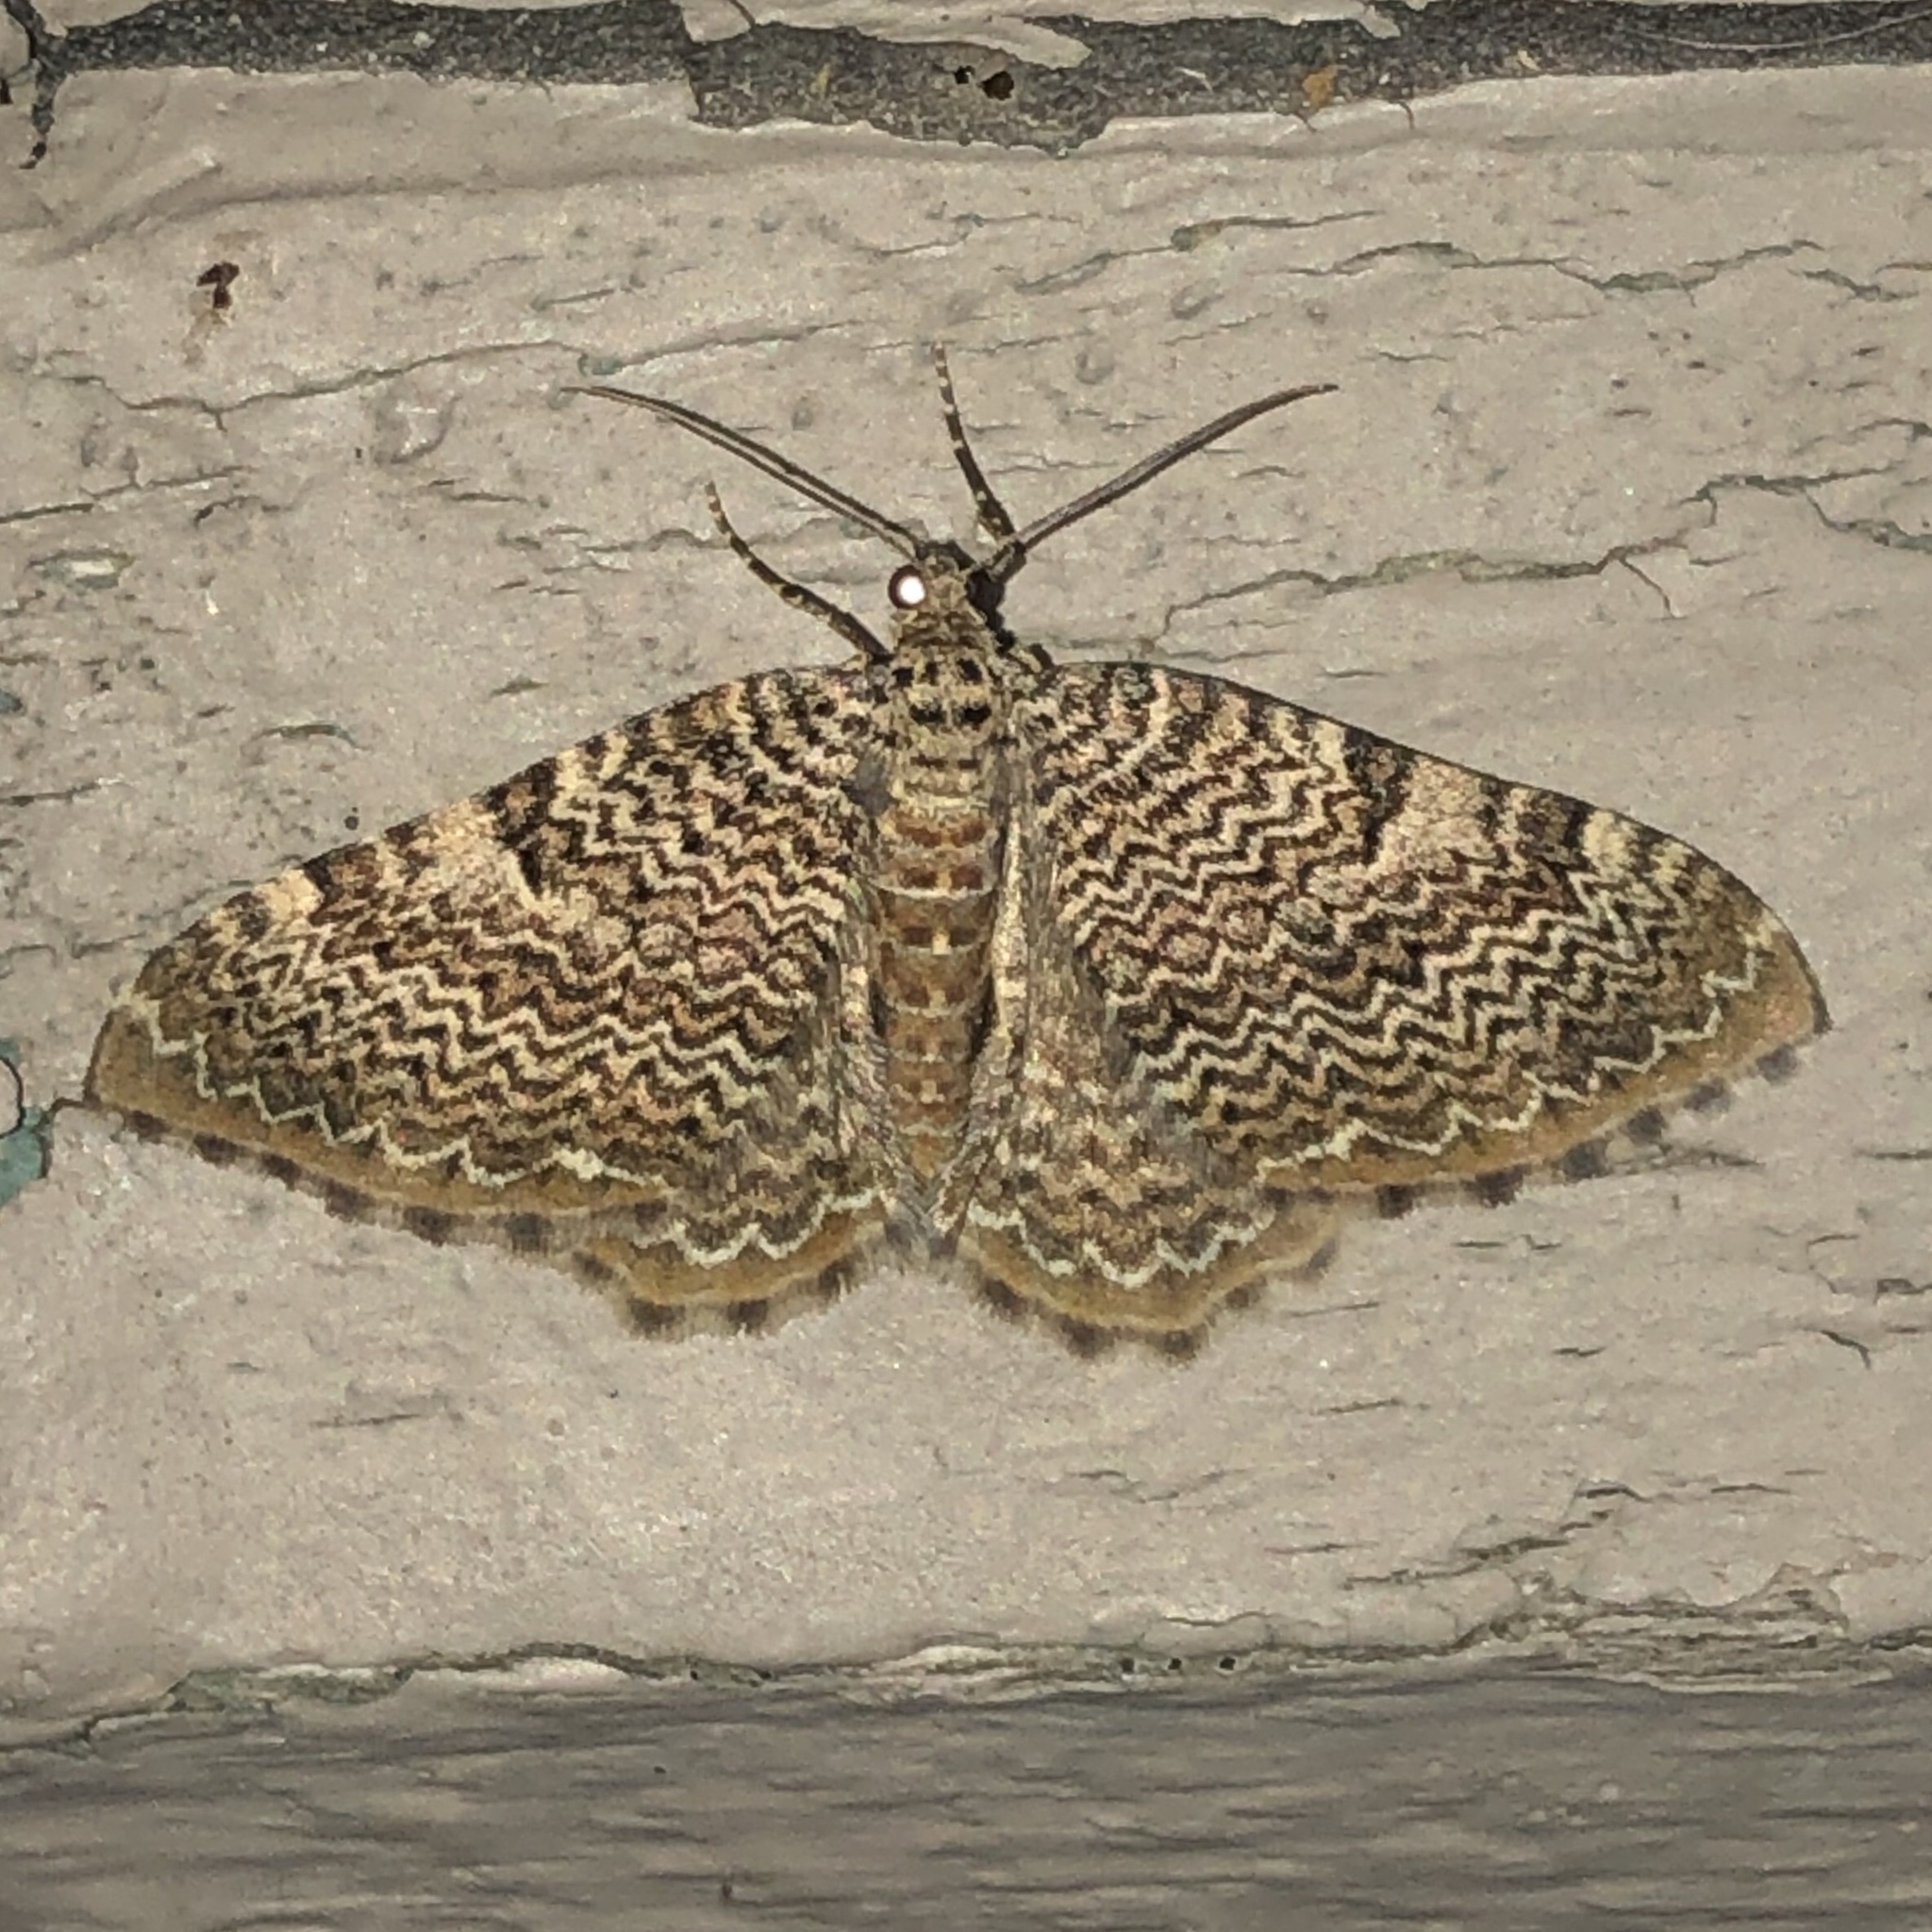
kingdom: Animalia
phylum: Arthropoda
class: Insecta
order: Lepidoptera
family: Geometridae
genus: Rheumaptera
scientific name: Rheumaptera prunivorata
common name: Cherry scallop shell moth
